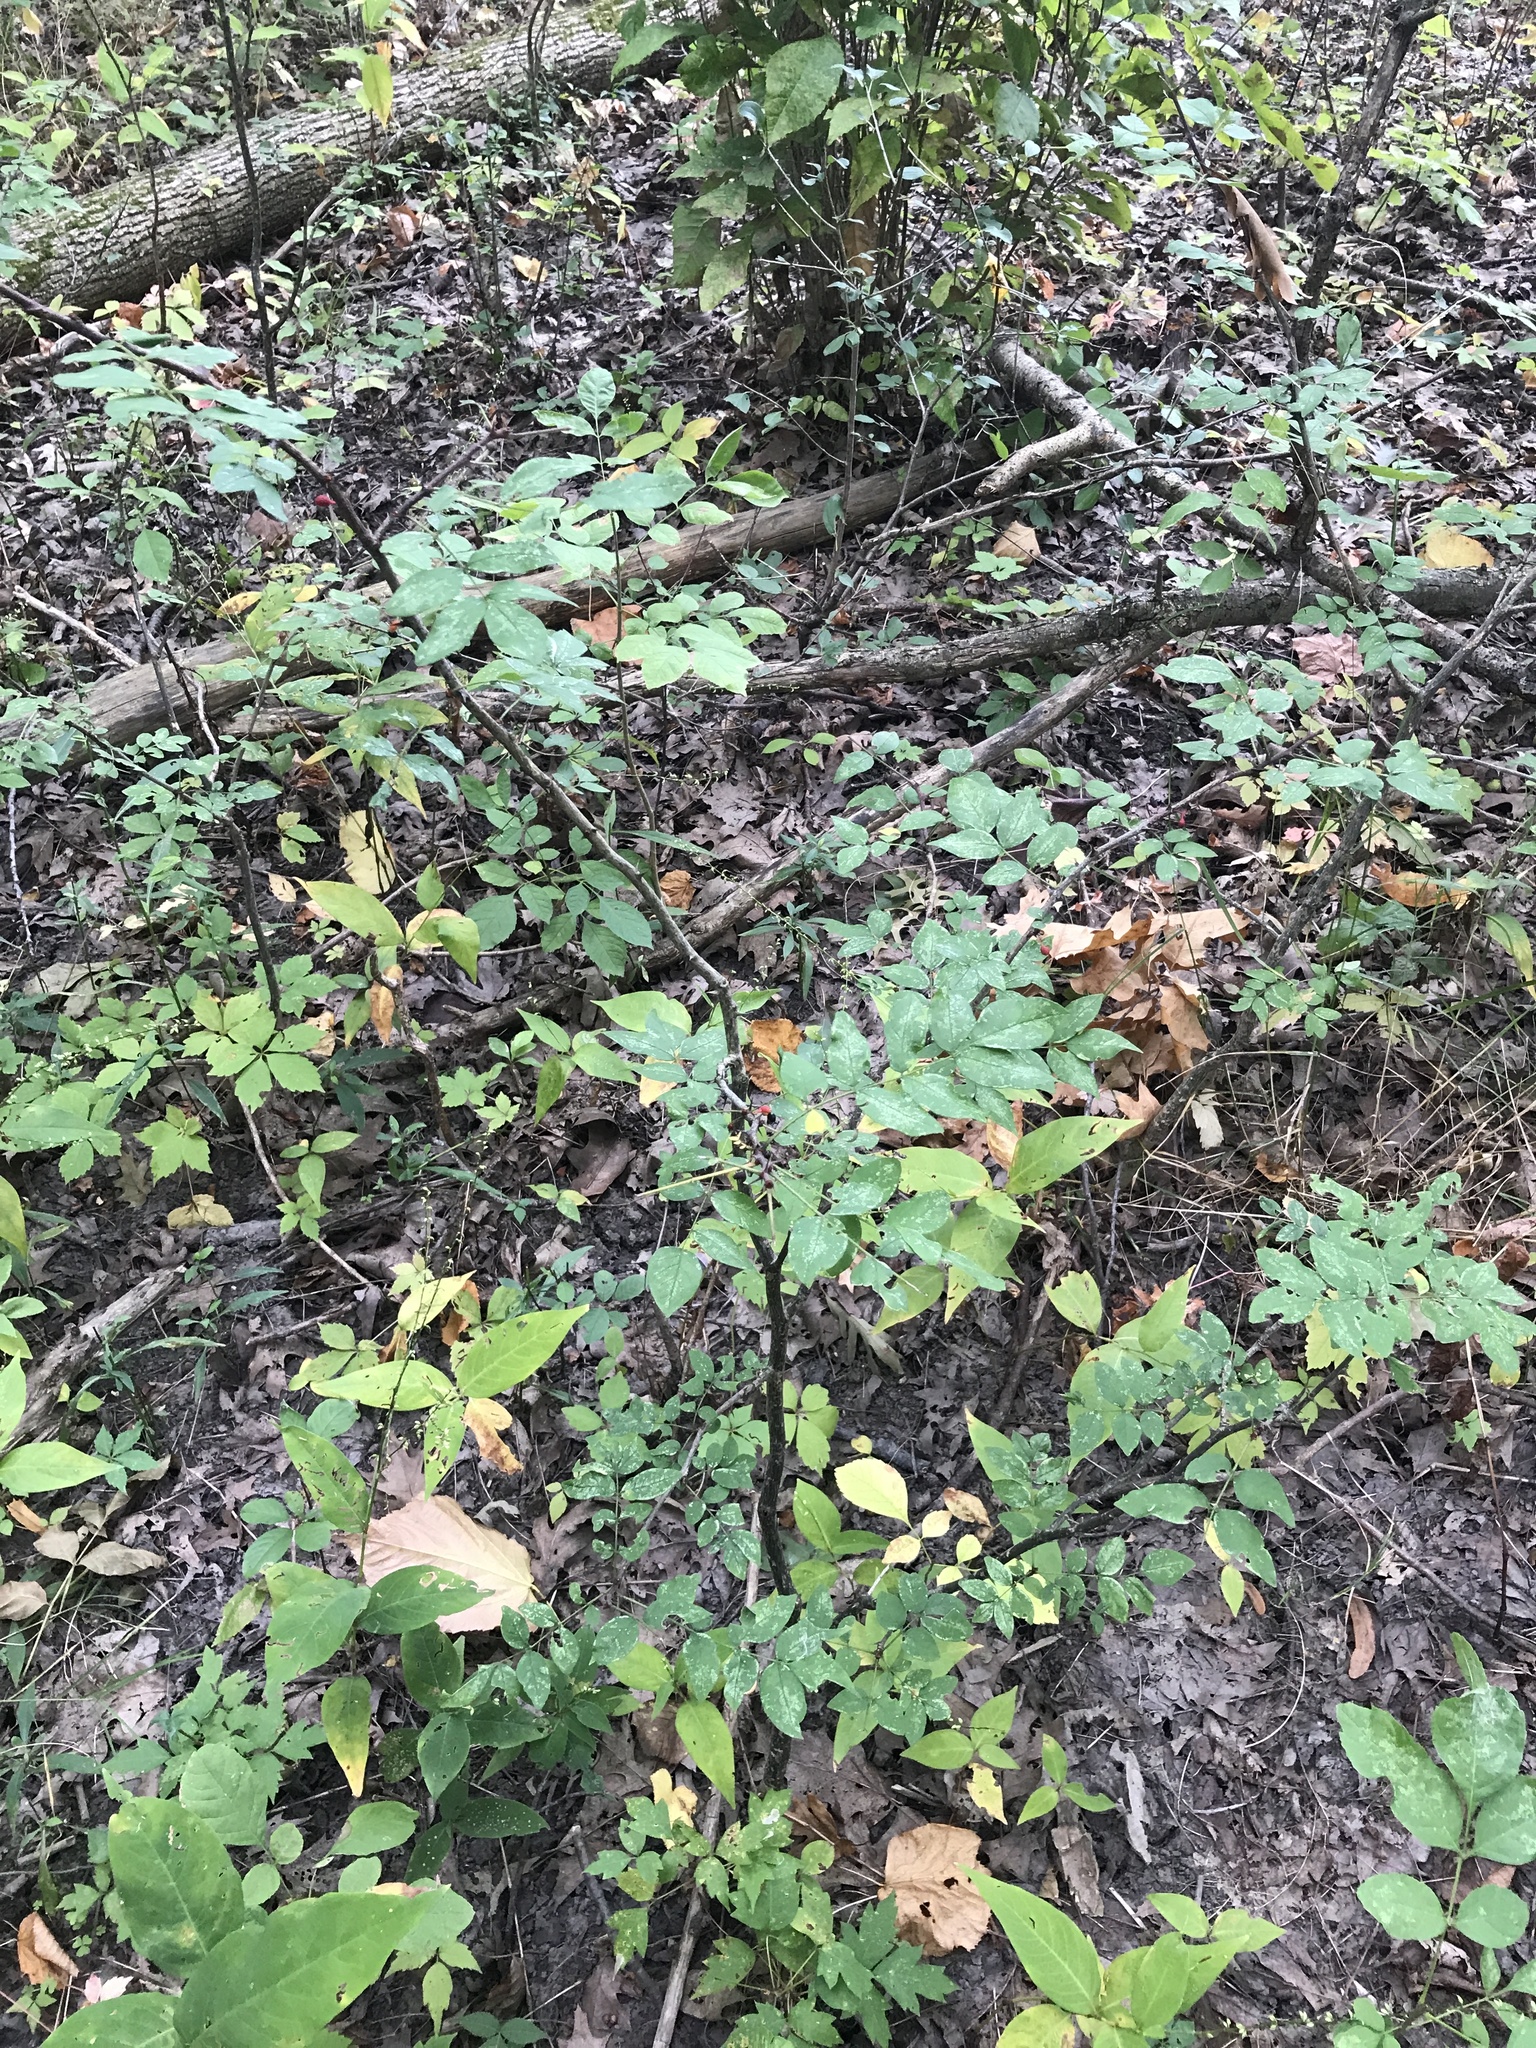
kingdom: Plantae
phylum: Tracheophyta
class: Magnoliopsida
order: Sapindales
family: Rutaceae
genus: Zanthoxylum
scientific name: Zanthoxylum americanum
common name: Northern prickly-ash
